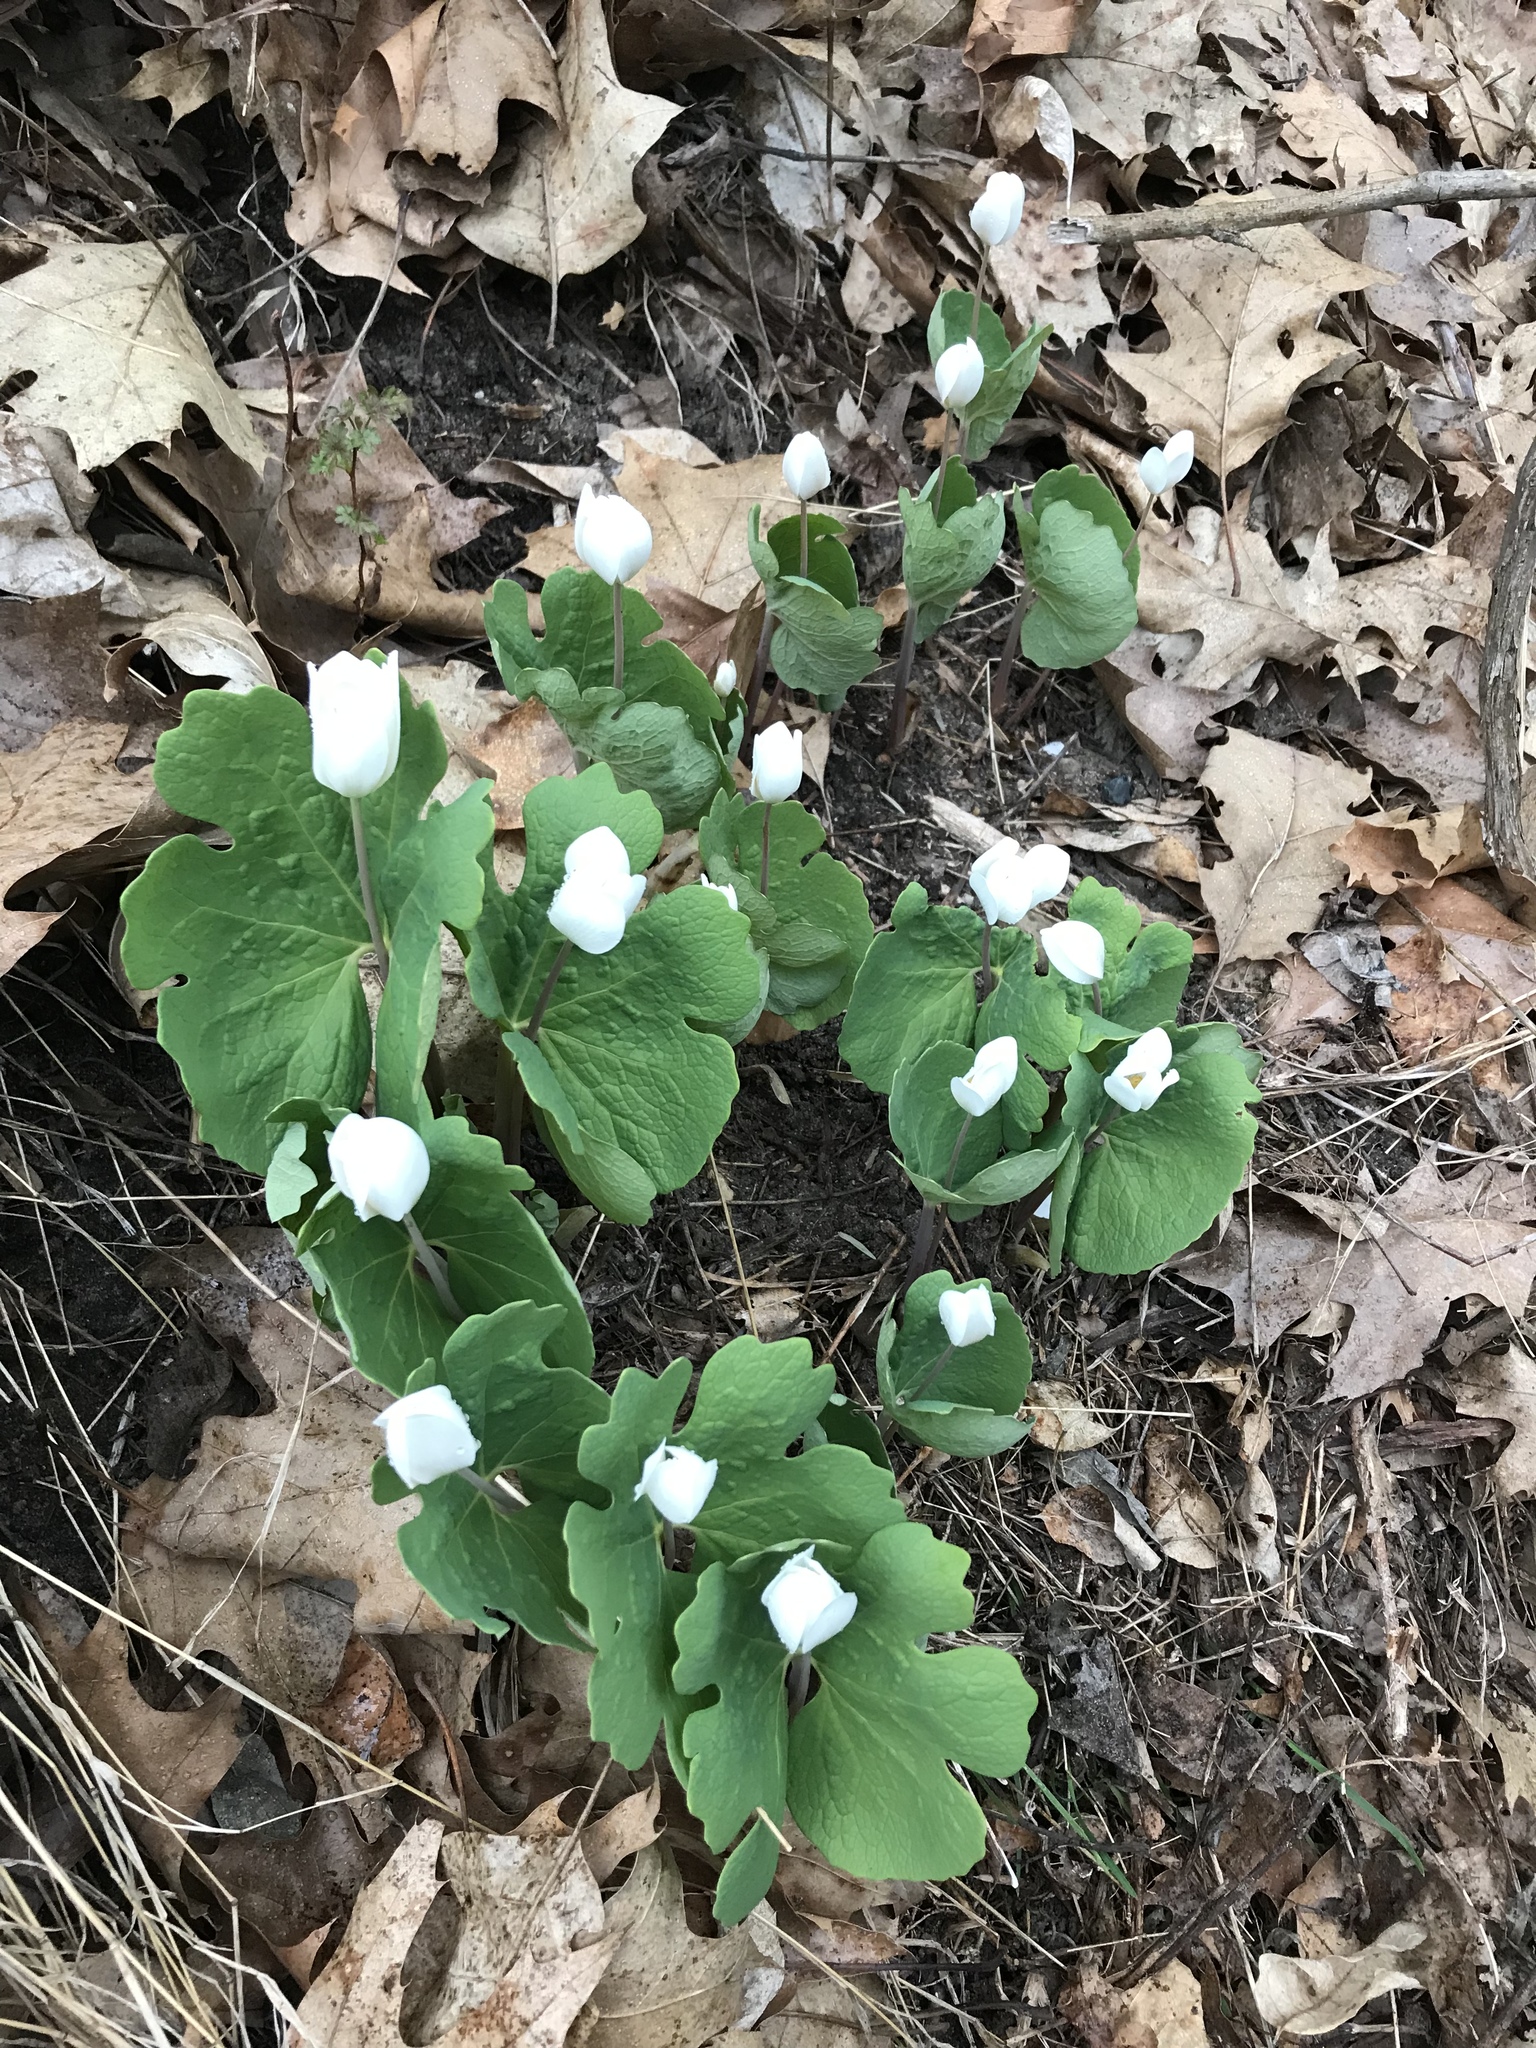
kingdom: Plantae
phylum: Tracheophyta
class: Magnoliopsida
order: Ranunculales
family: Papaveraceae
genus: Sanguinaria
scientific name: Sanguinaria canadensis
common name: Bloodroot
